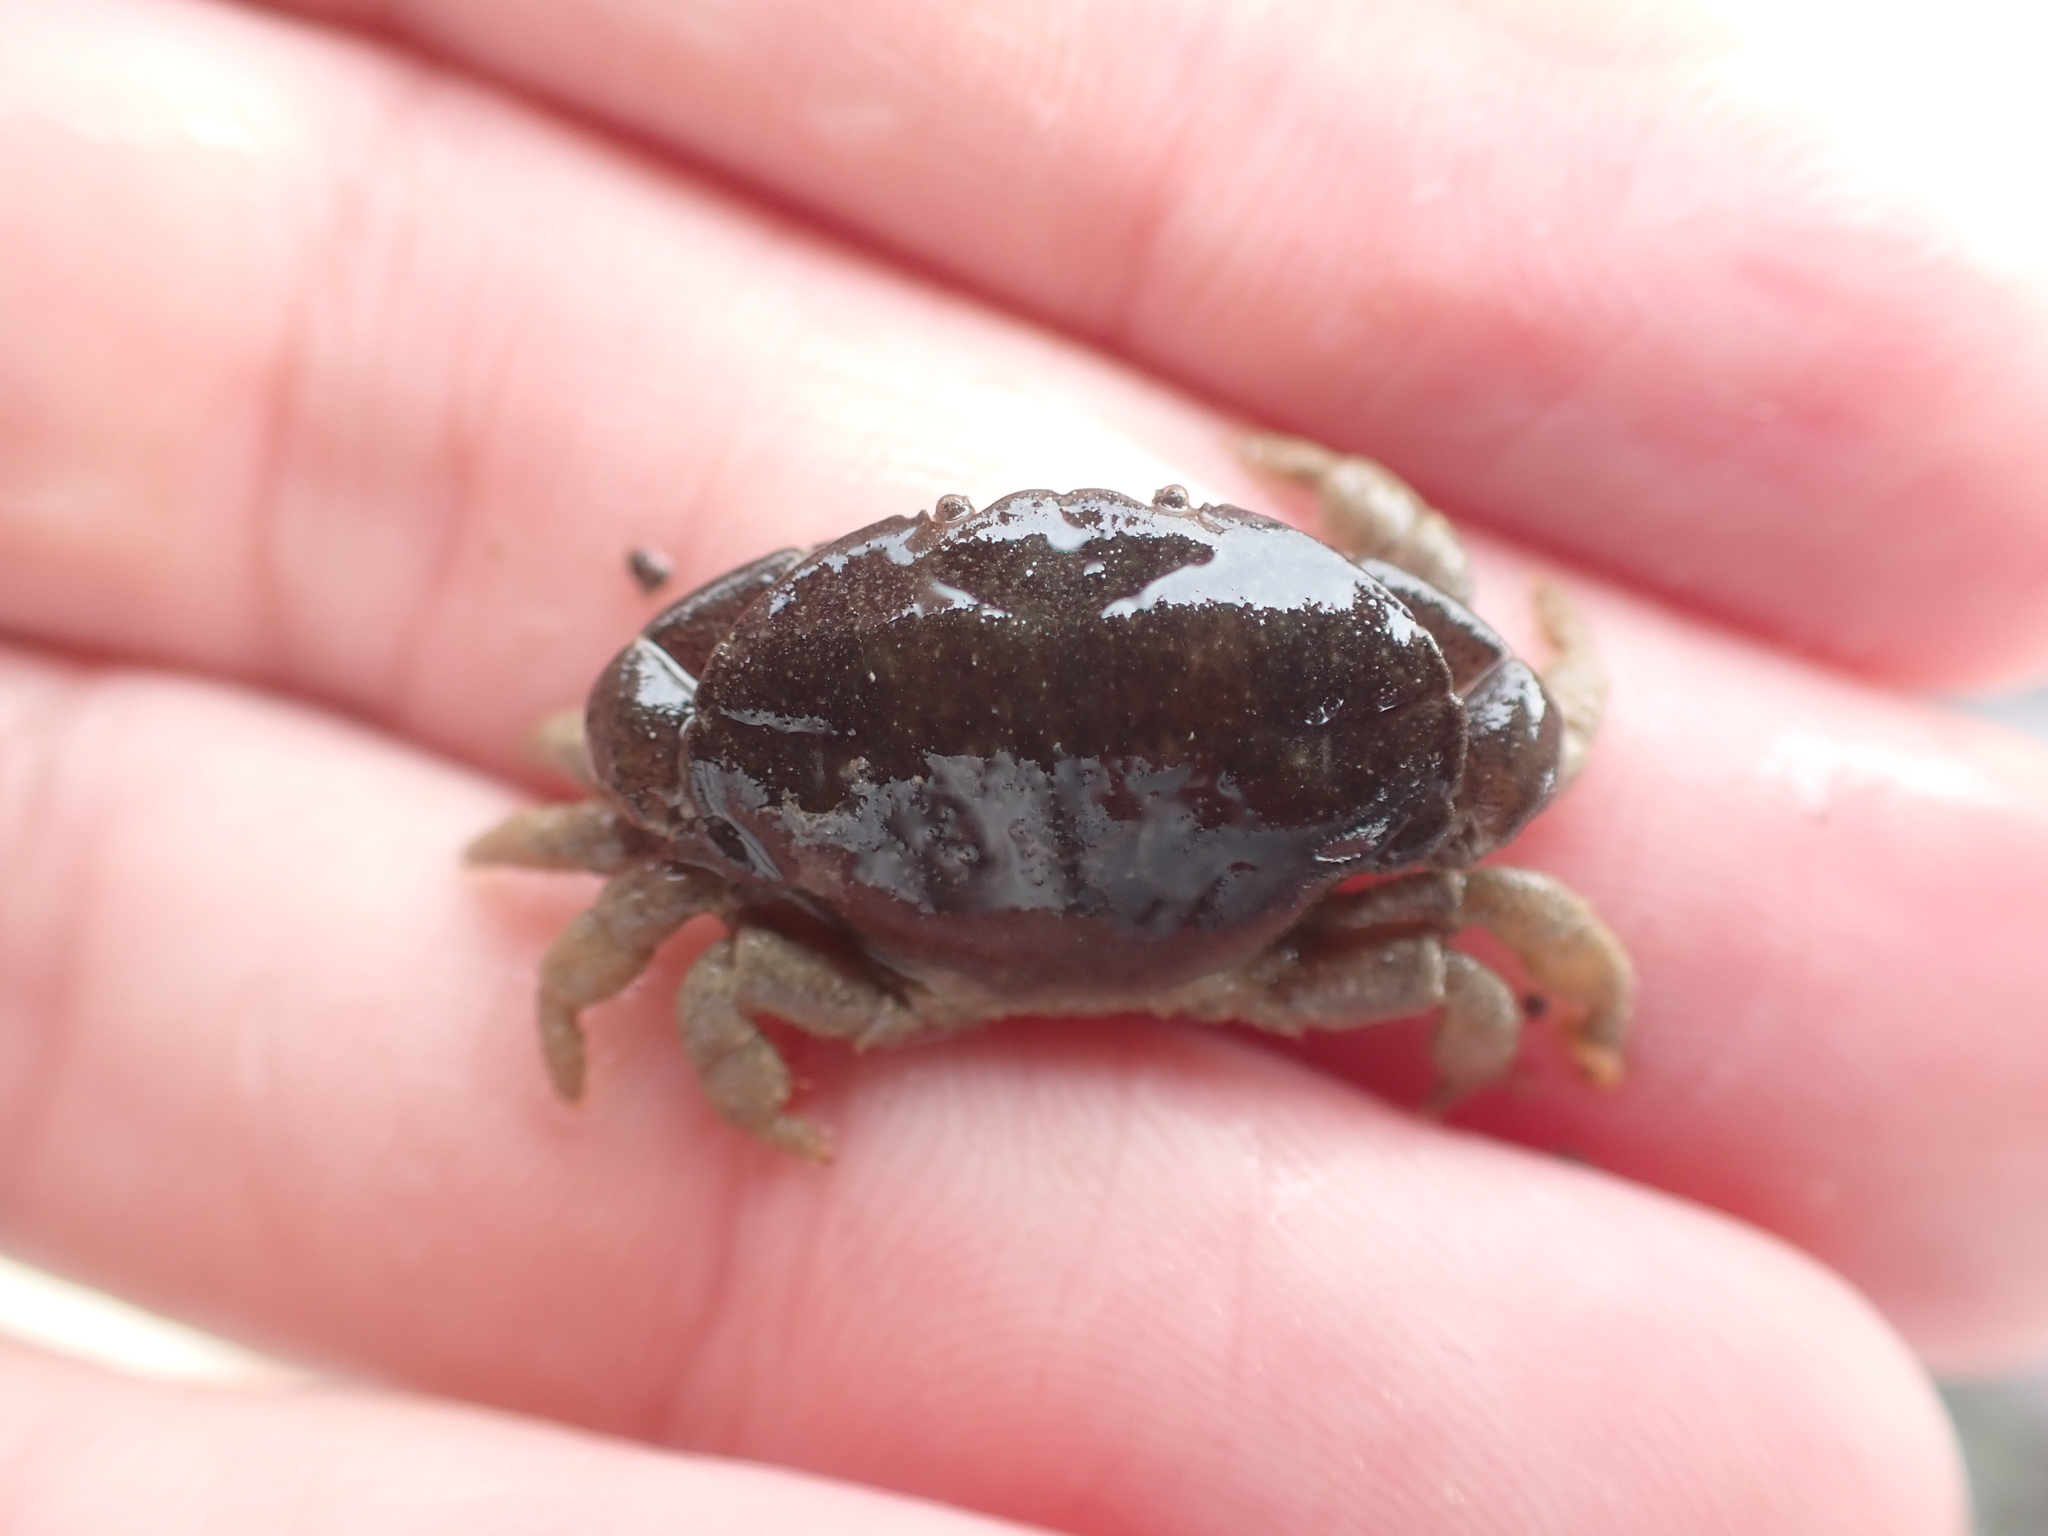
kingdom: Animalia
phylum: Arthropoda
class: Malacostraca
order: Decapoda
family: Heteroziidae
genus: Heterozius
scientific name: Heterozius rotundifrons
